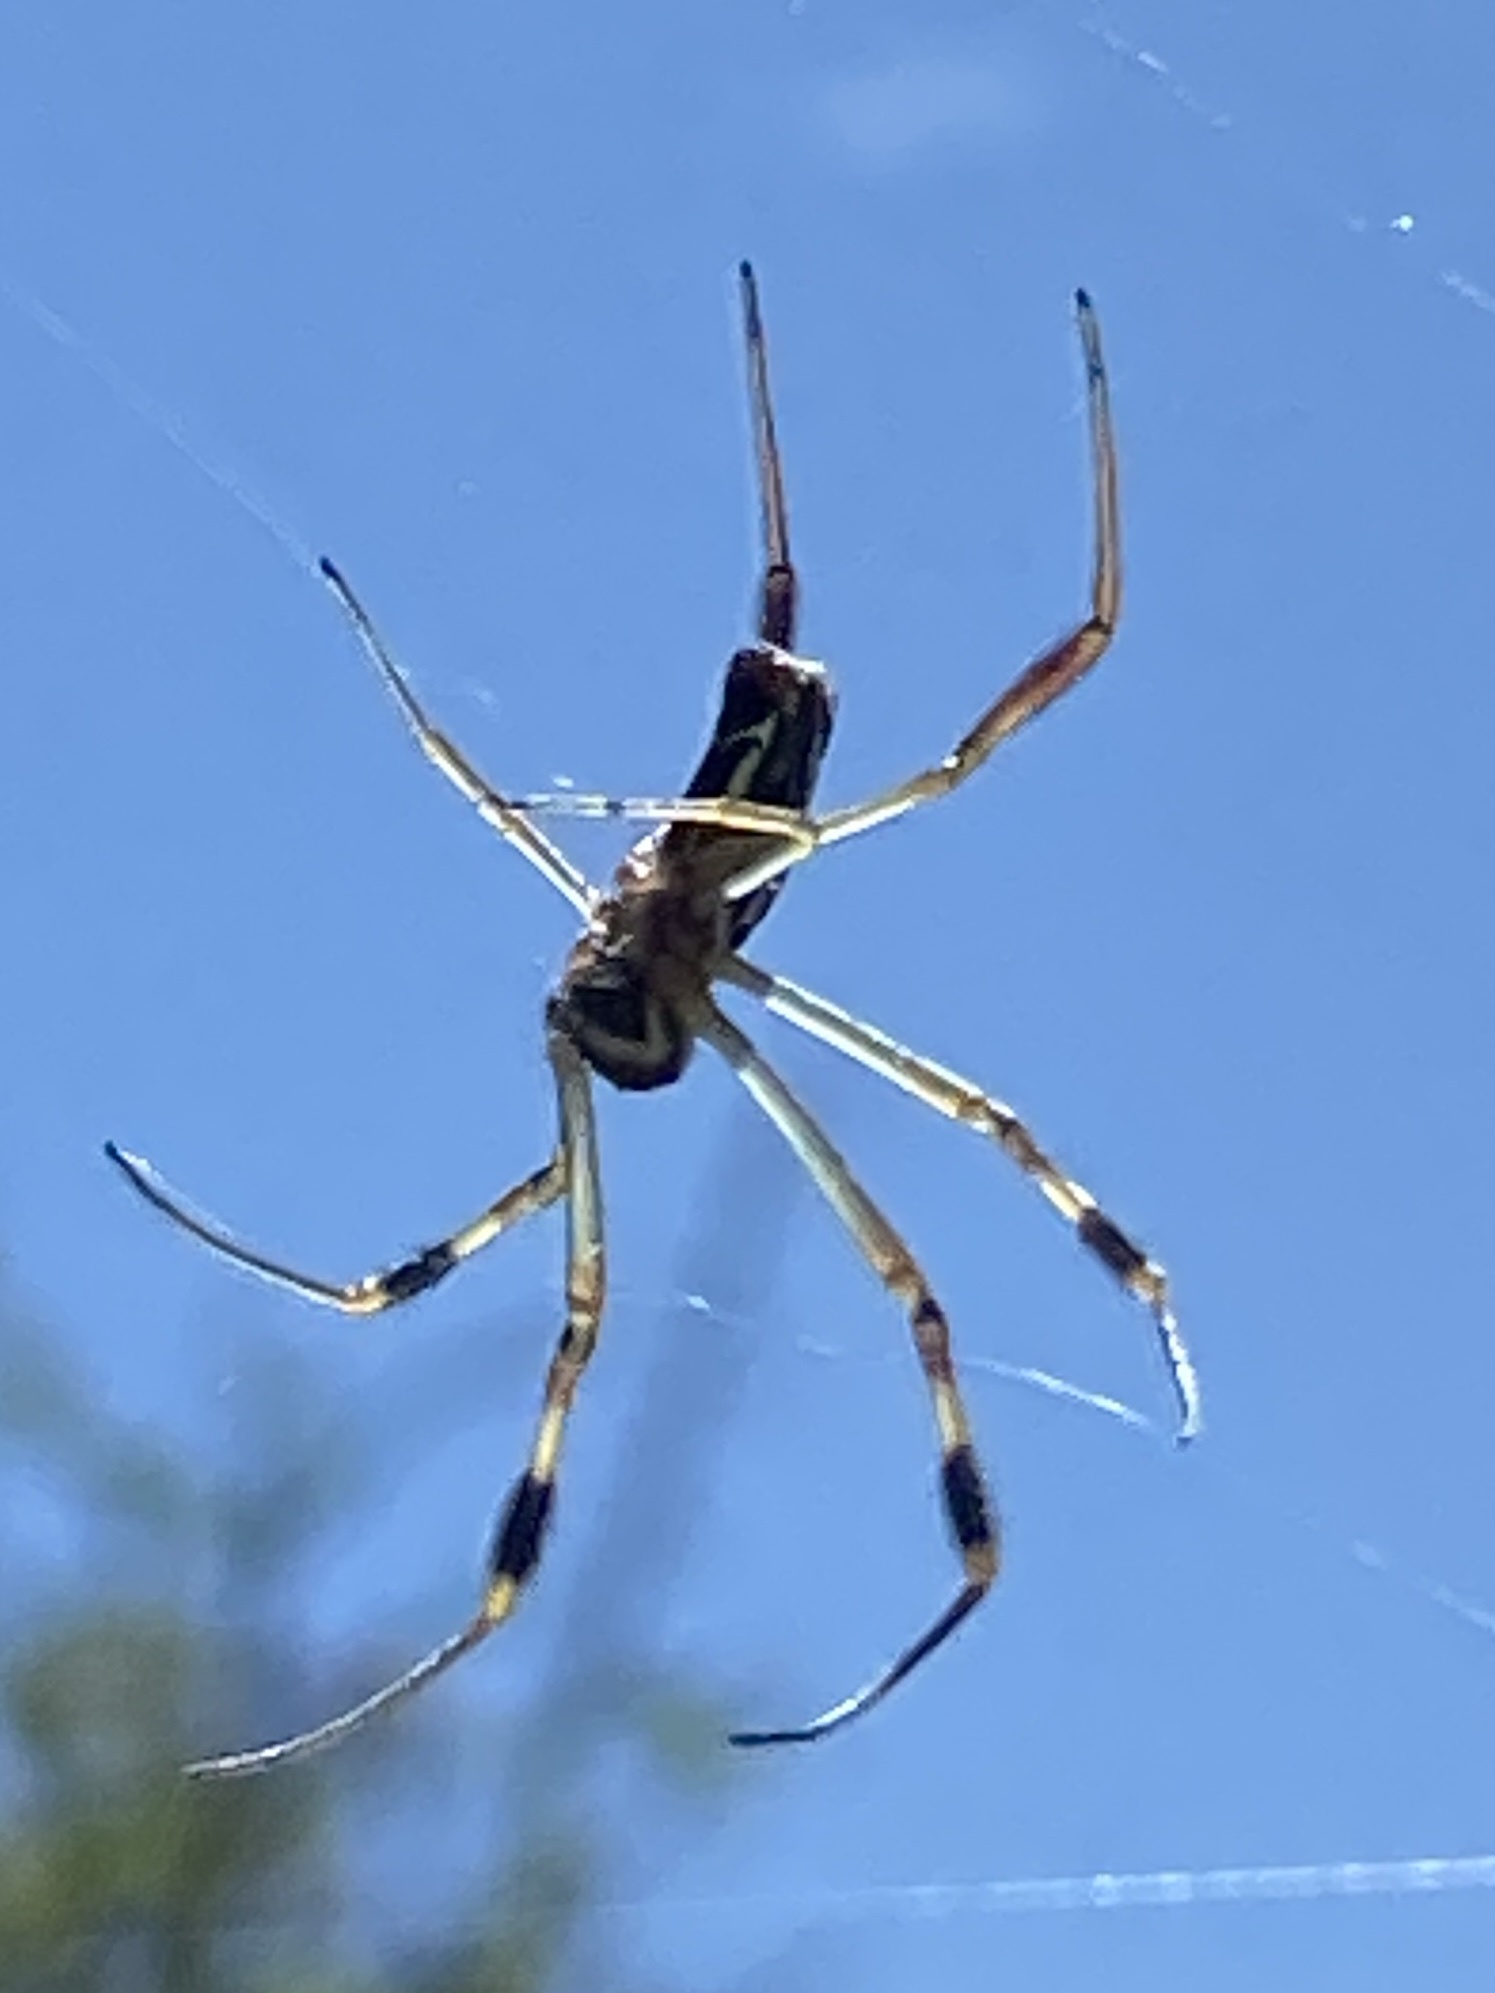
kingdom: Animalia
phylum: Arthropoda
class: Arachnida
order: Araneae
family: Araneidae
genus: Trichonephila
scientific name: Trichonephila senegalensis
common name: Banded golden orb weaver
